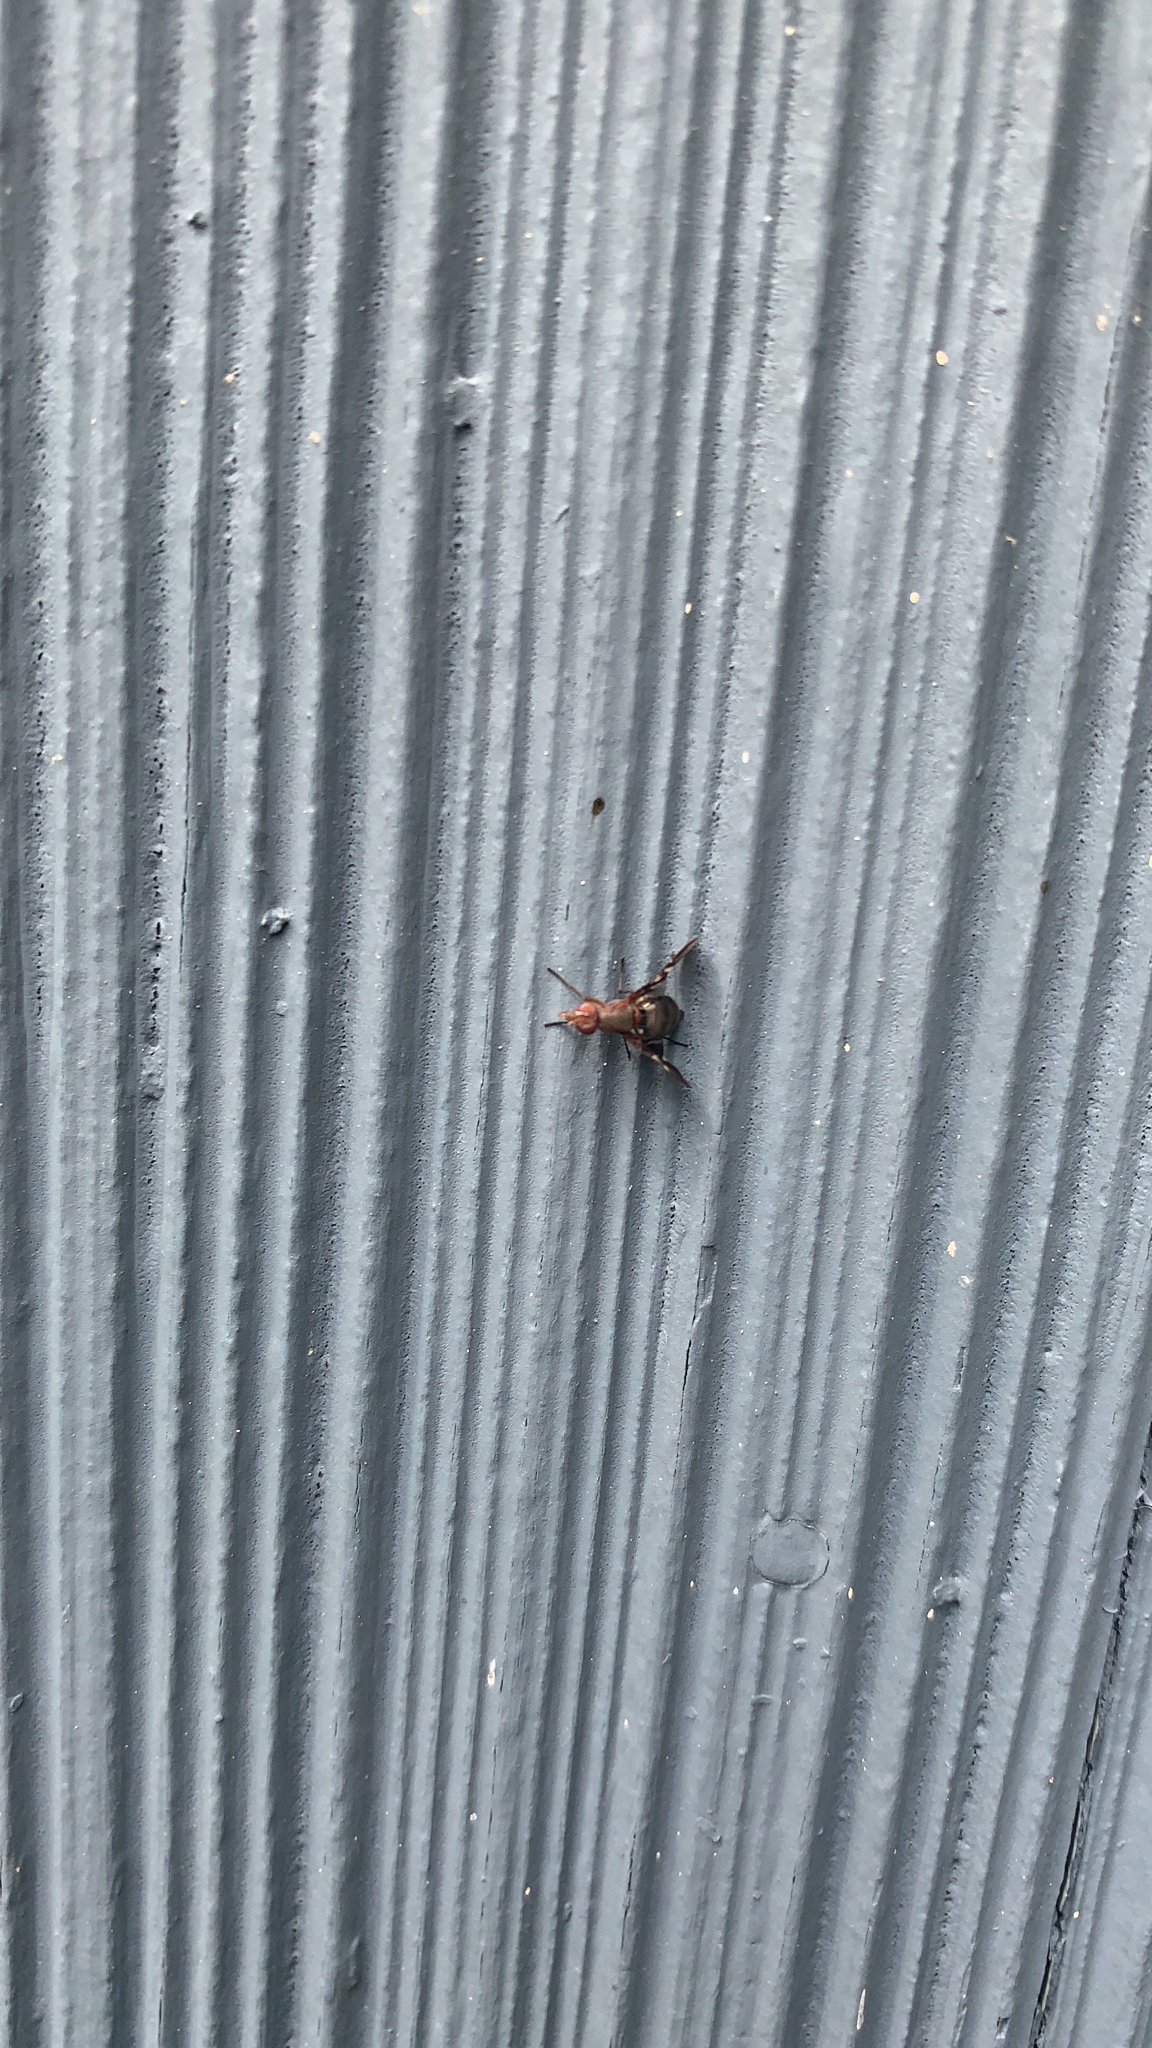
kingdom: Animalia
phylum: Arthropoda
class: Insecta
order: Diptera
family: Ulidiidae
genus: Delphinia
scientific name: Delphinia picta
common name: Common picture-winged fly
